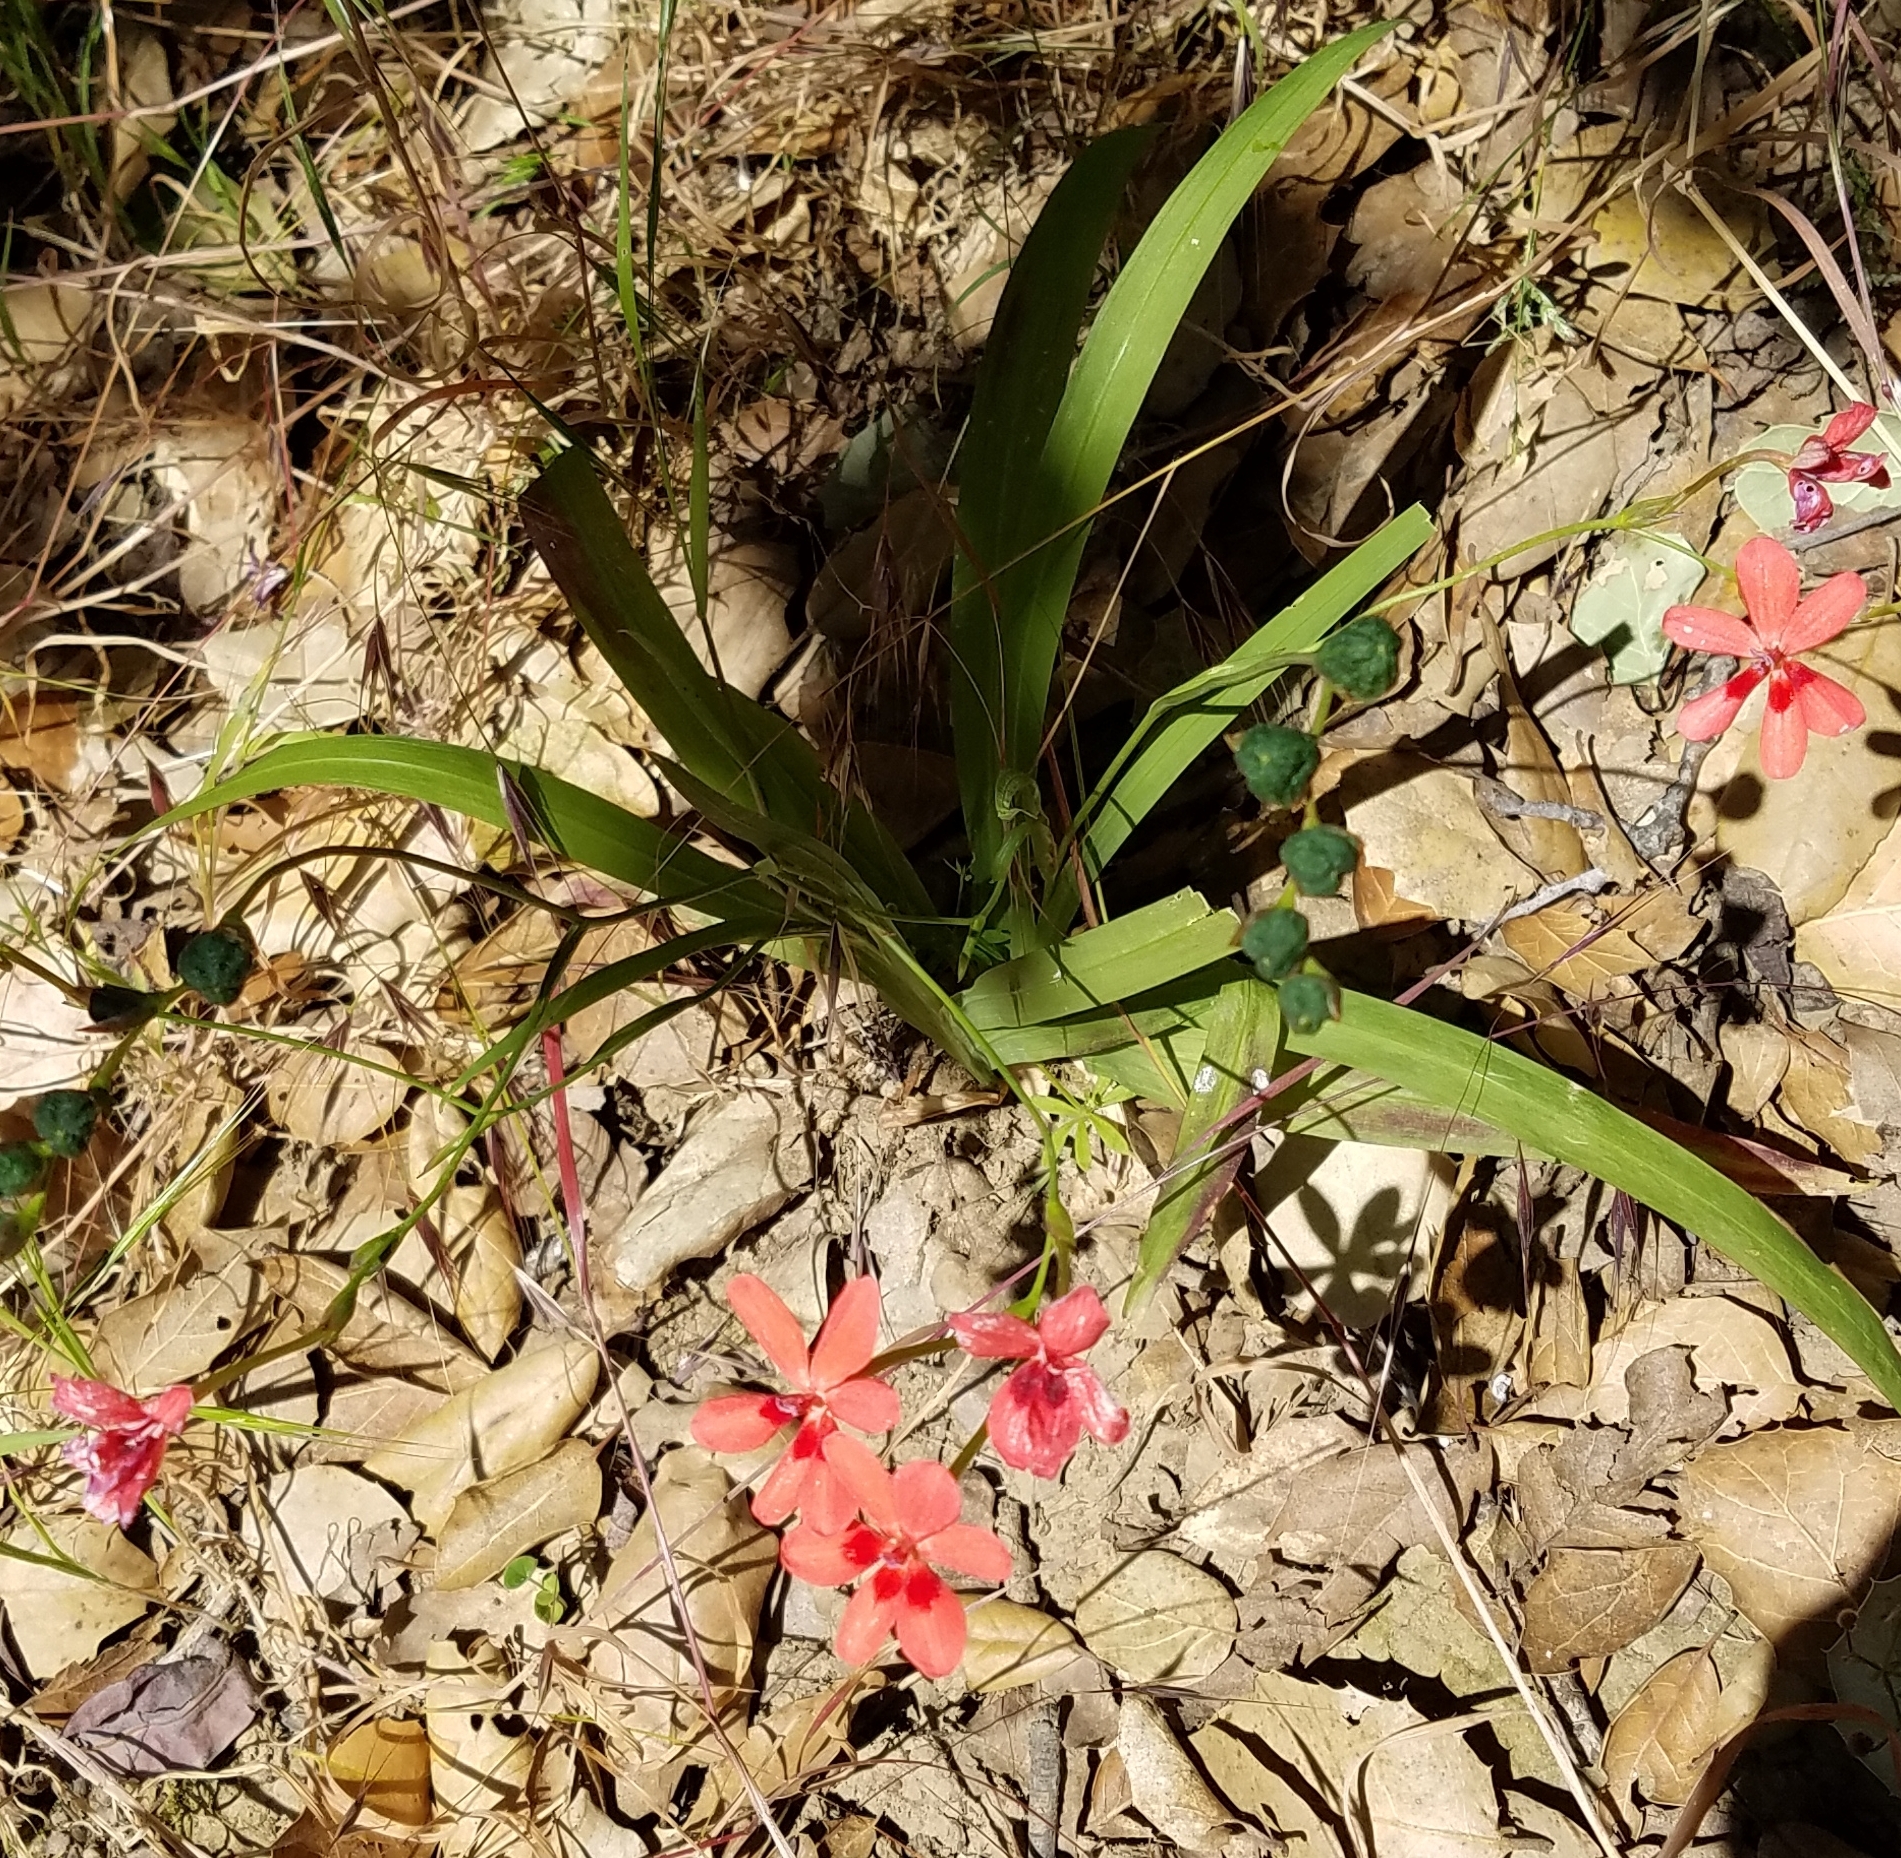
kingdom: Plantae
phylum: Tracheophyta
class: Liliopsida
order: Asparagales
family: Iridaceae
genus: Freesia
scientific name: Freesia laxa
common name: False freesia
